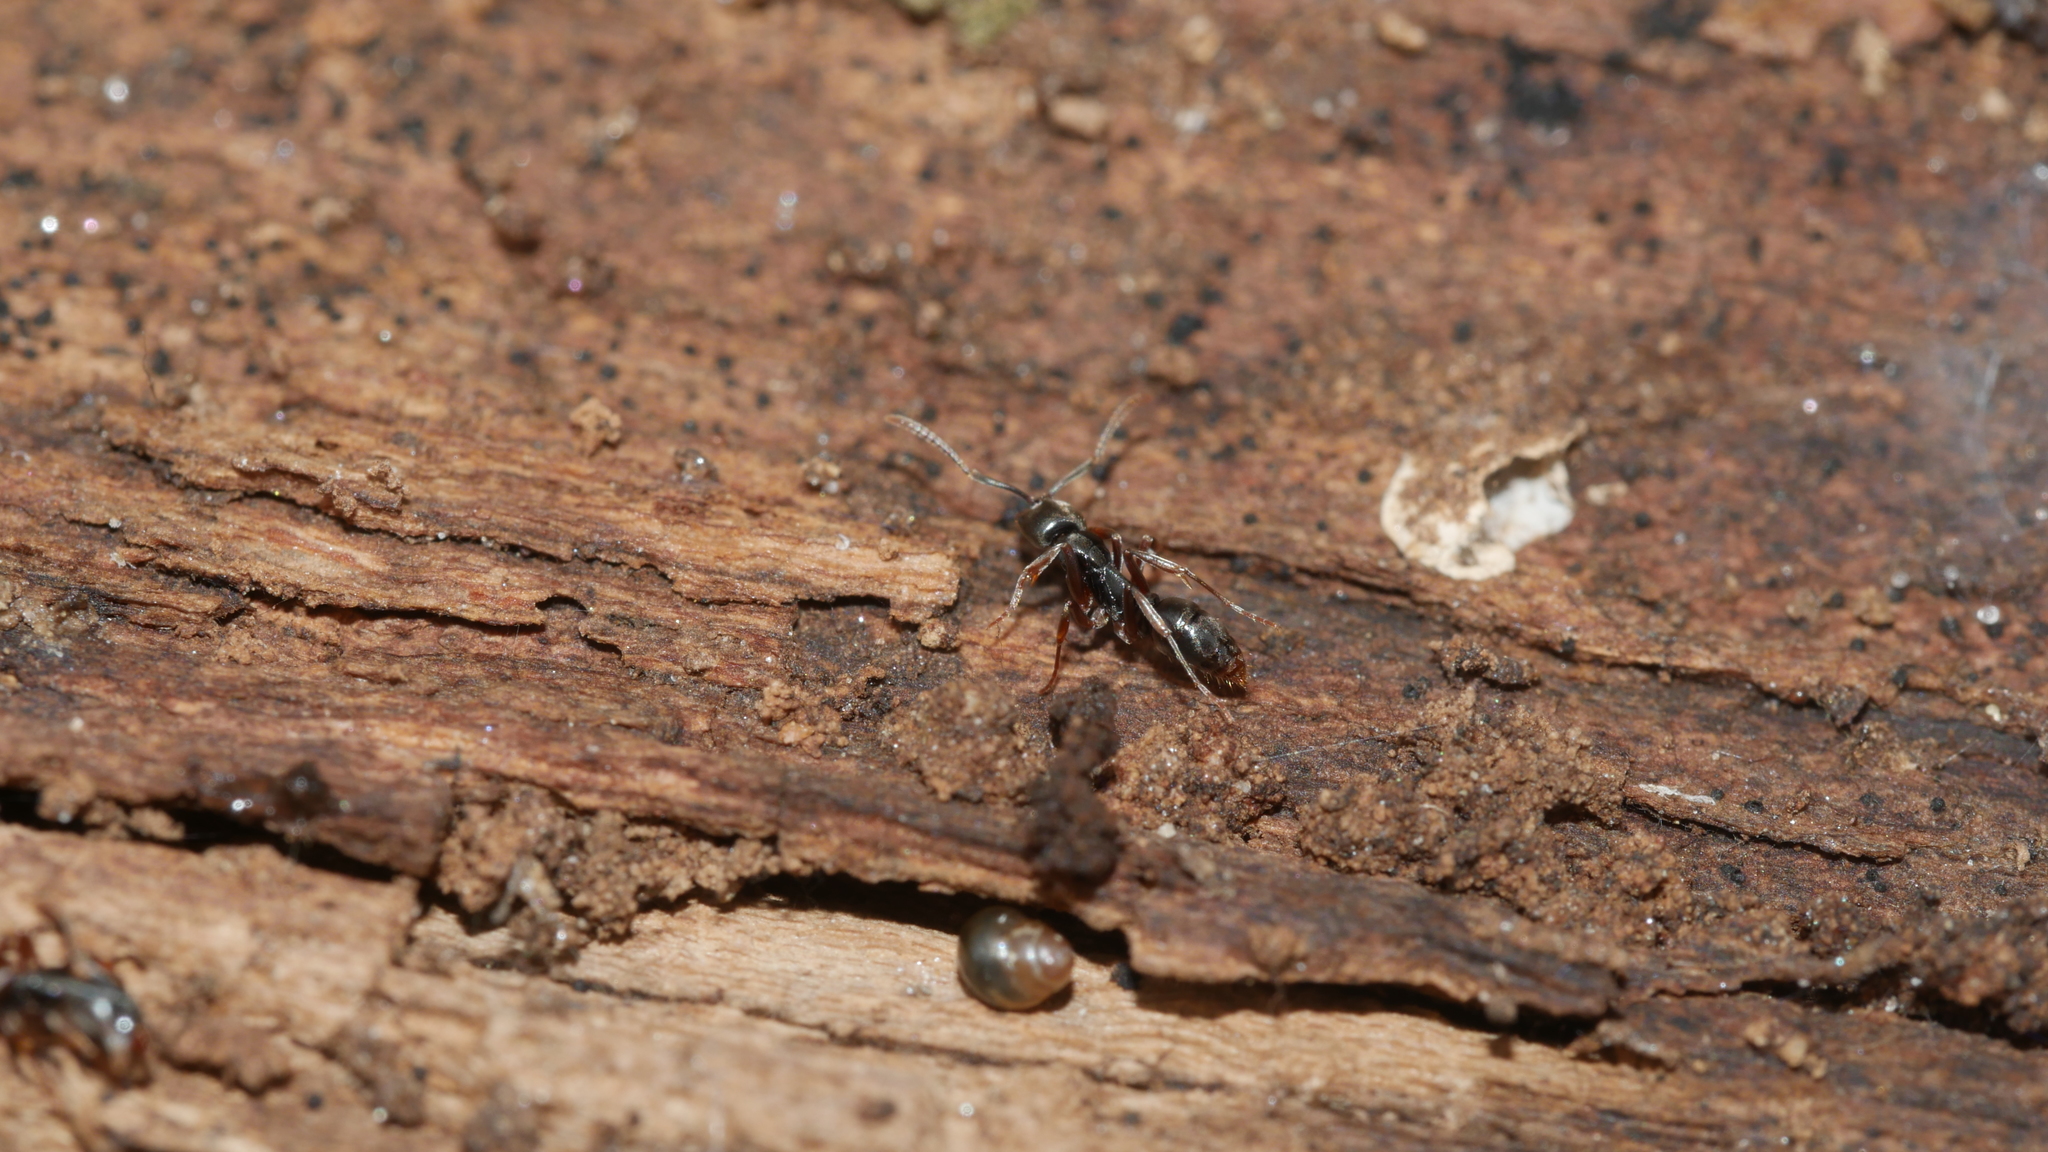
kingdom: Animalia
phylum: Arthropoda
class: Insecta
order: Hymenoptera
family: Formicidae
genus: Pachycondyla
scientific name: Pachycondyla chinensis
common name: Asian needle ant
